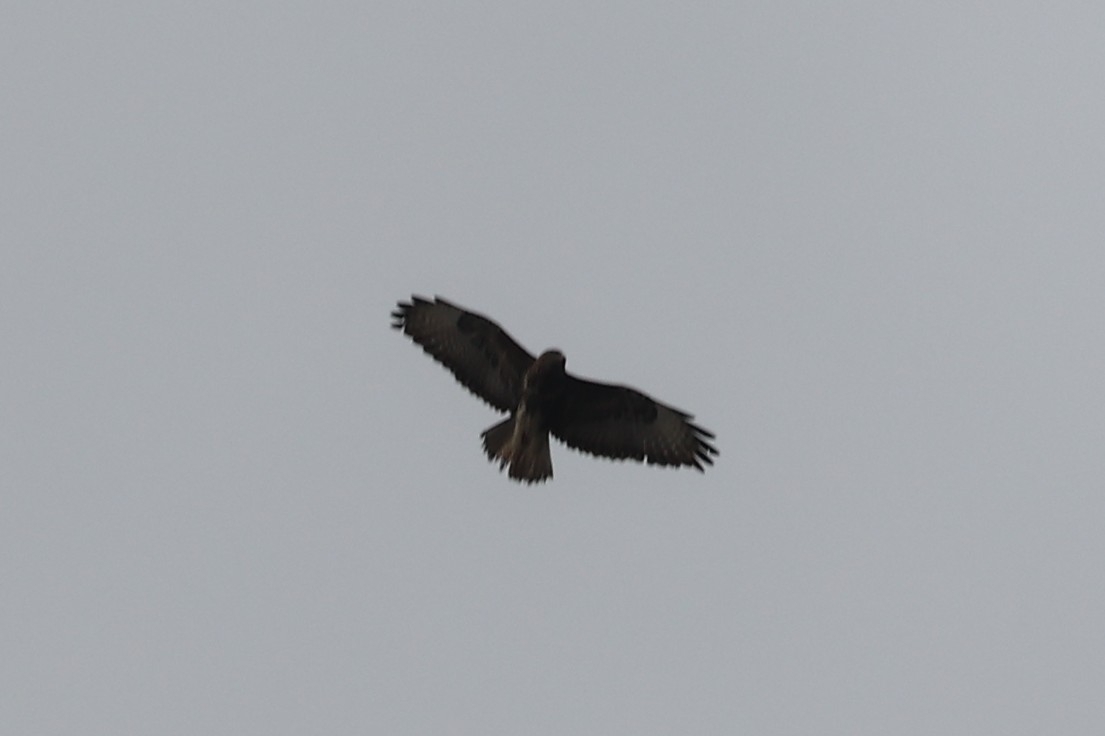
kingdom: Animalia
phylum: Chordata
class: Aves
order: Accipitriformes
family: Accipitridae
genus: Buteo
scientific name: Buteo buteo
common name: Common buzzard
